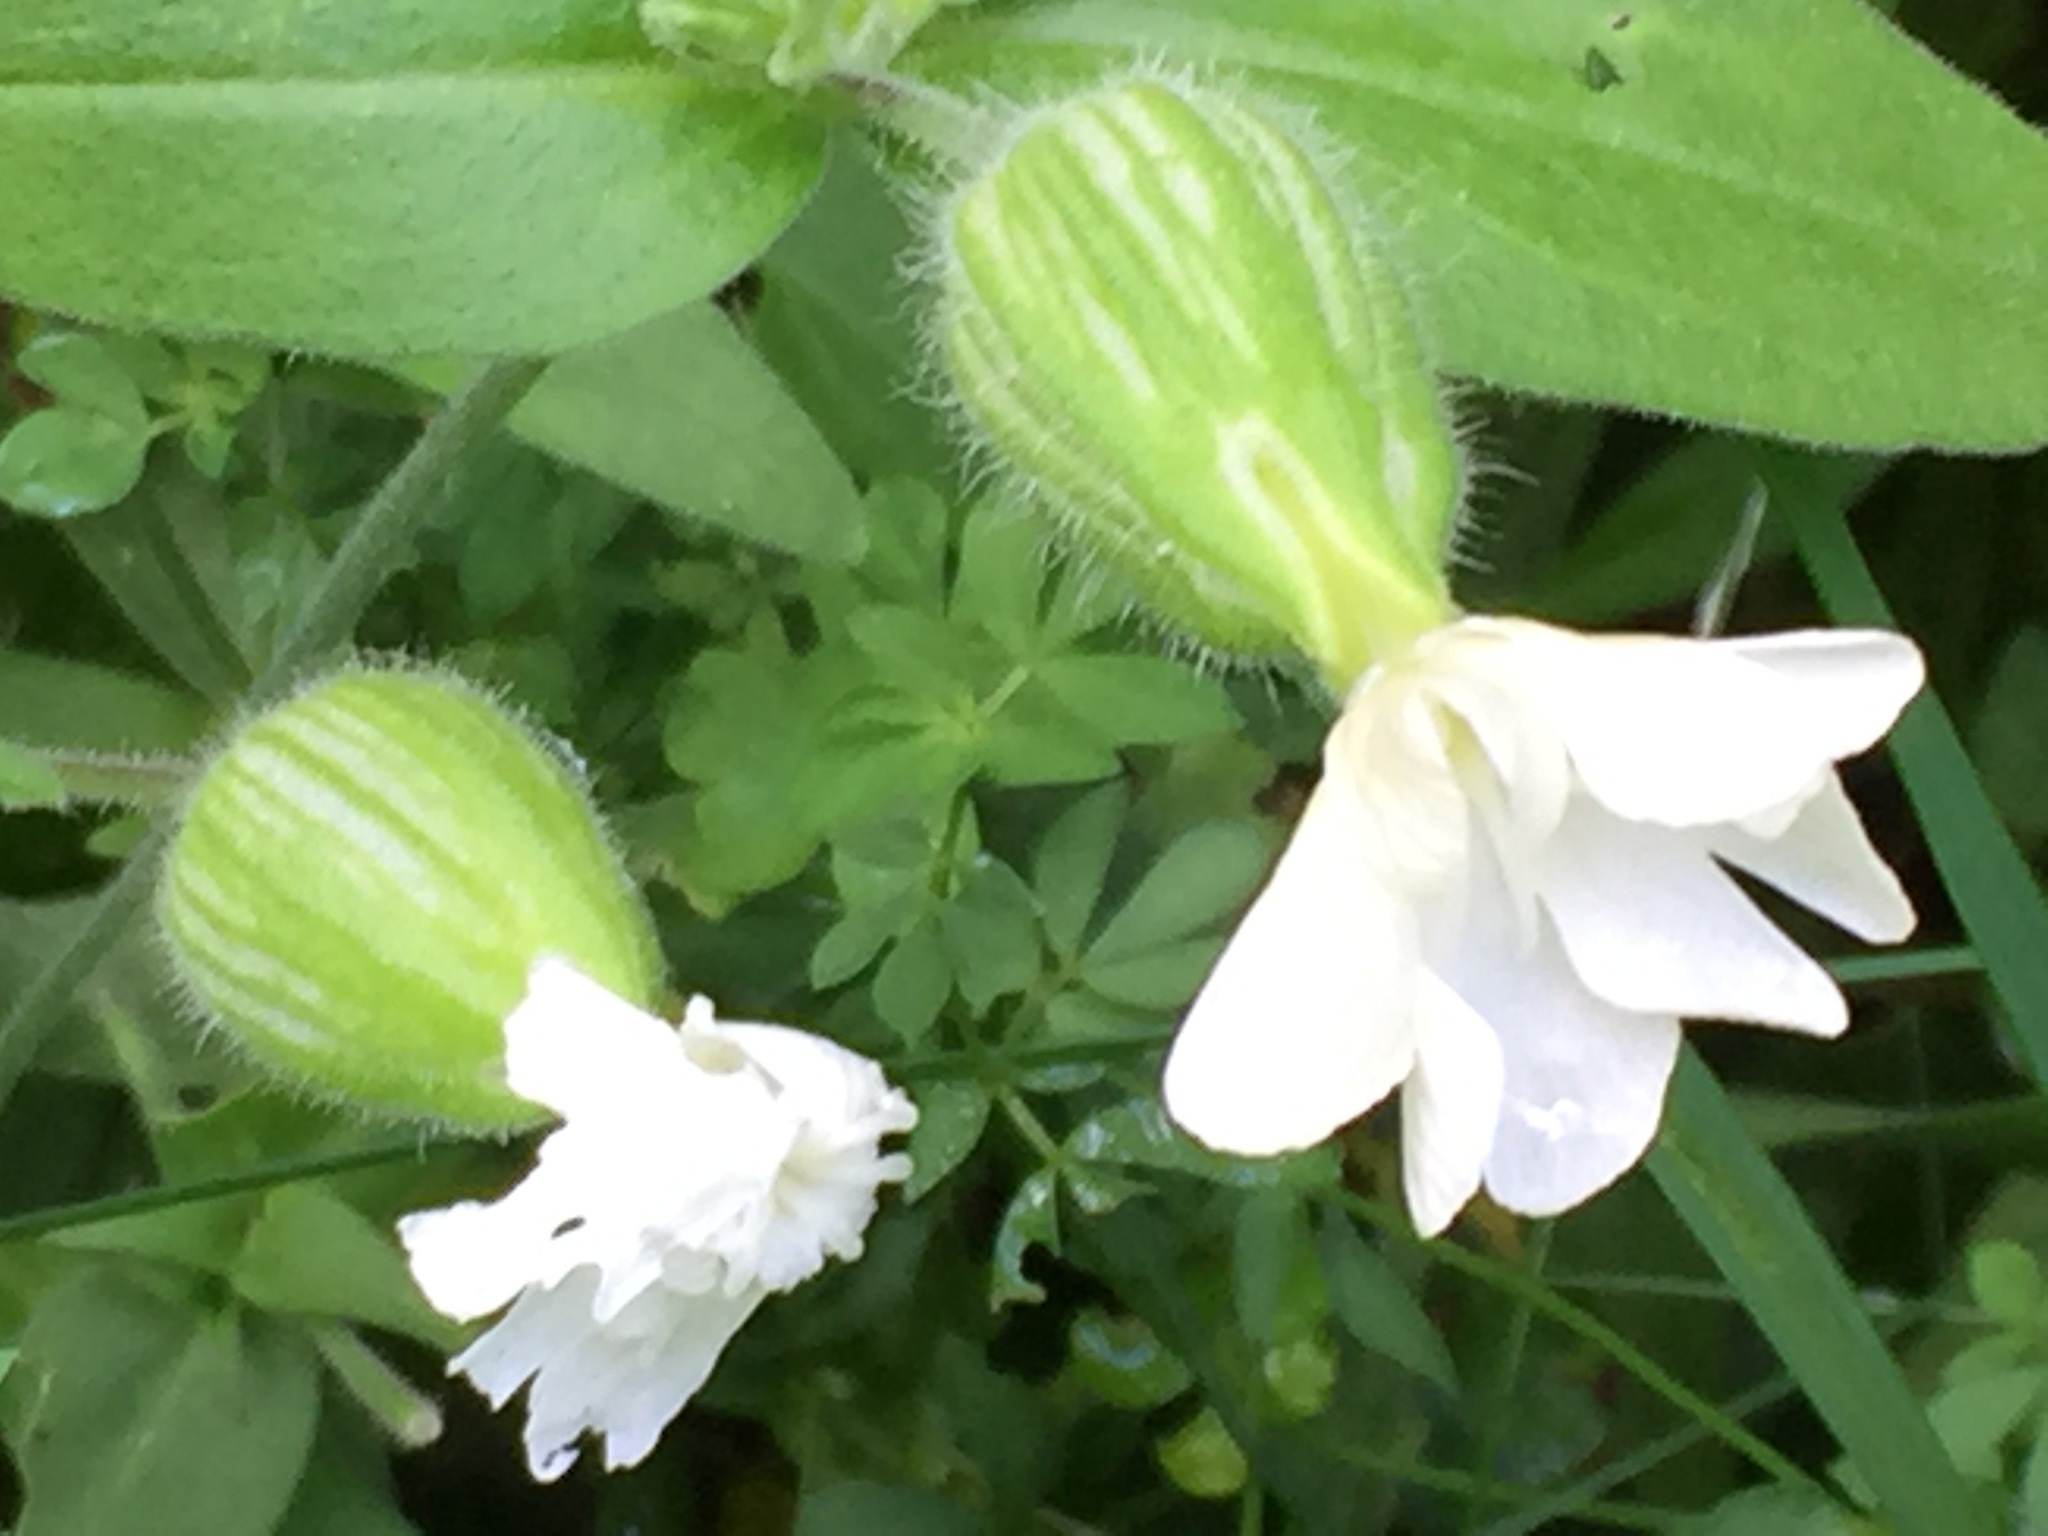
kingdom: Plantae
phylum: Tracheophyta
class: Magnoliopsida
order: Caryophyllales
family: Caryophyllaceae
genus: Silene
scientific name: Silene latifolia
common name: White campion
